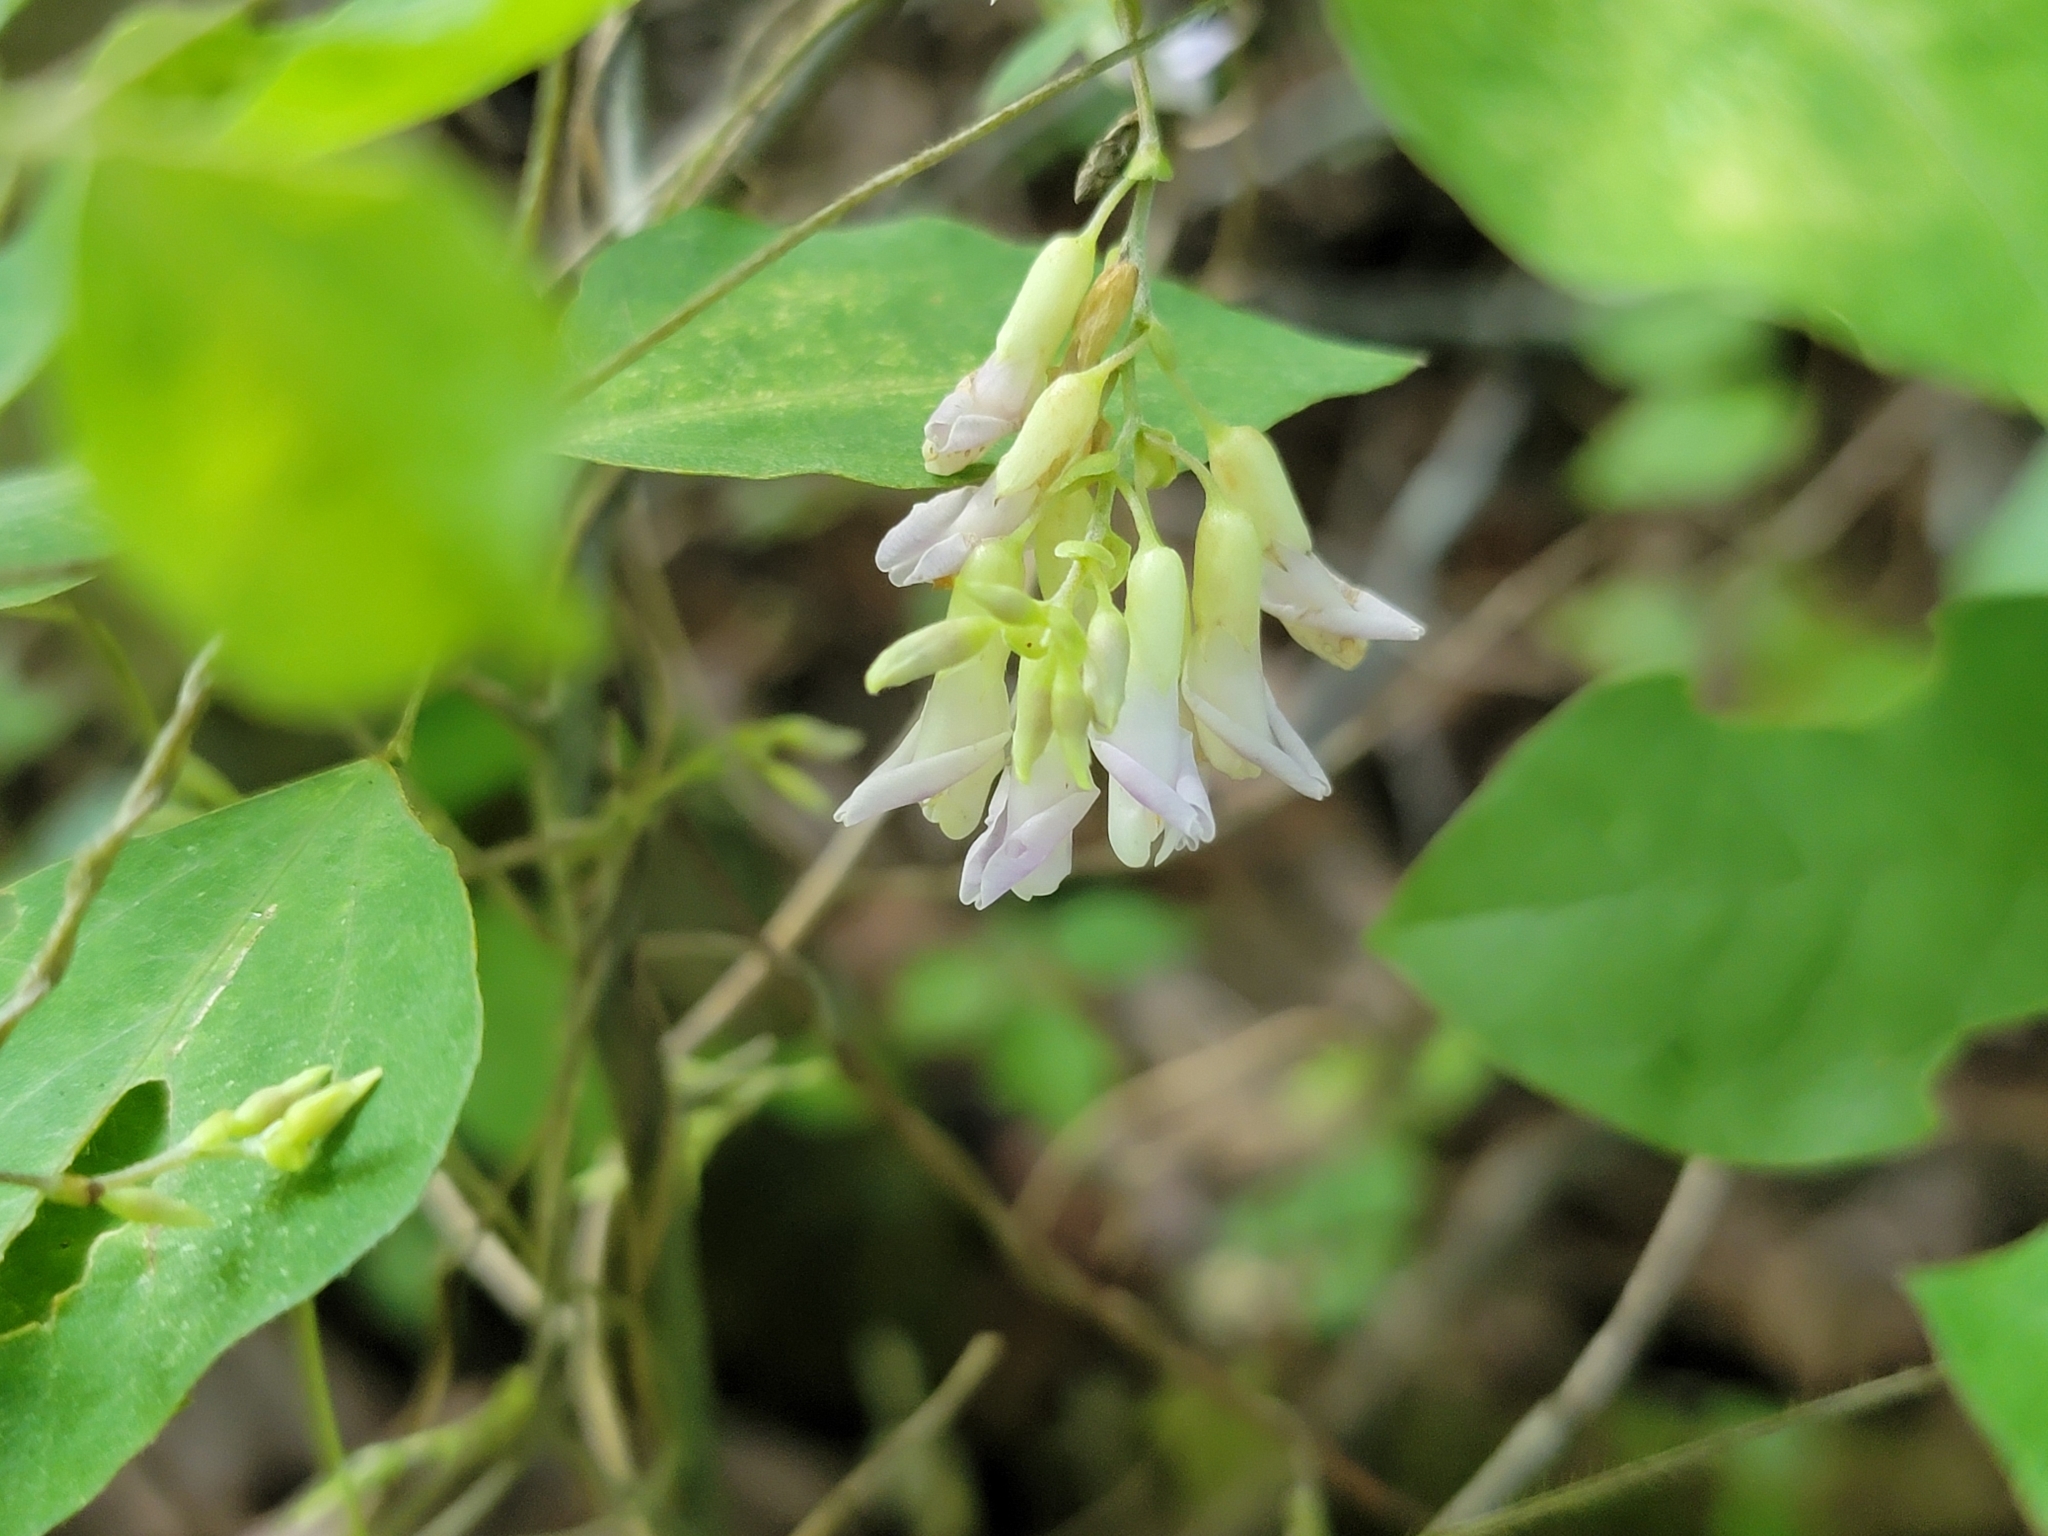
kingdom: Plantae
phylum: Tracheophyta
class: Magnoliopsida
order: Fabales
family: Fabaceae
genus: Amphicarpaea
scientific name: Amphicarpaea bracteata
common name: American hog peanut
